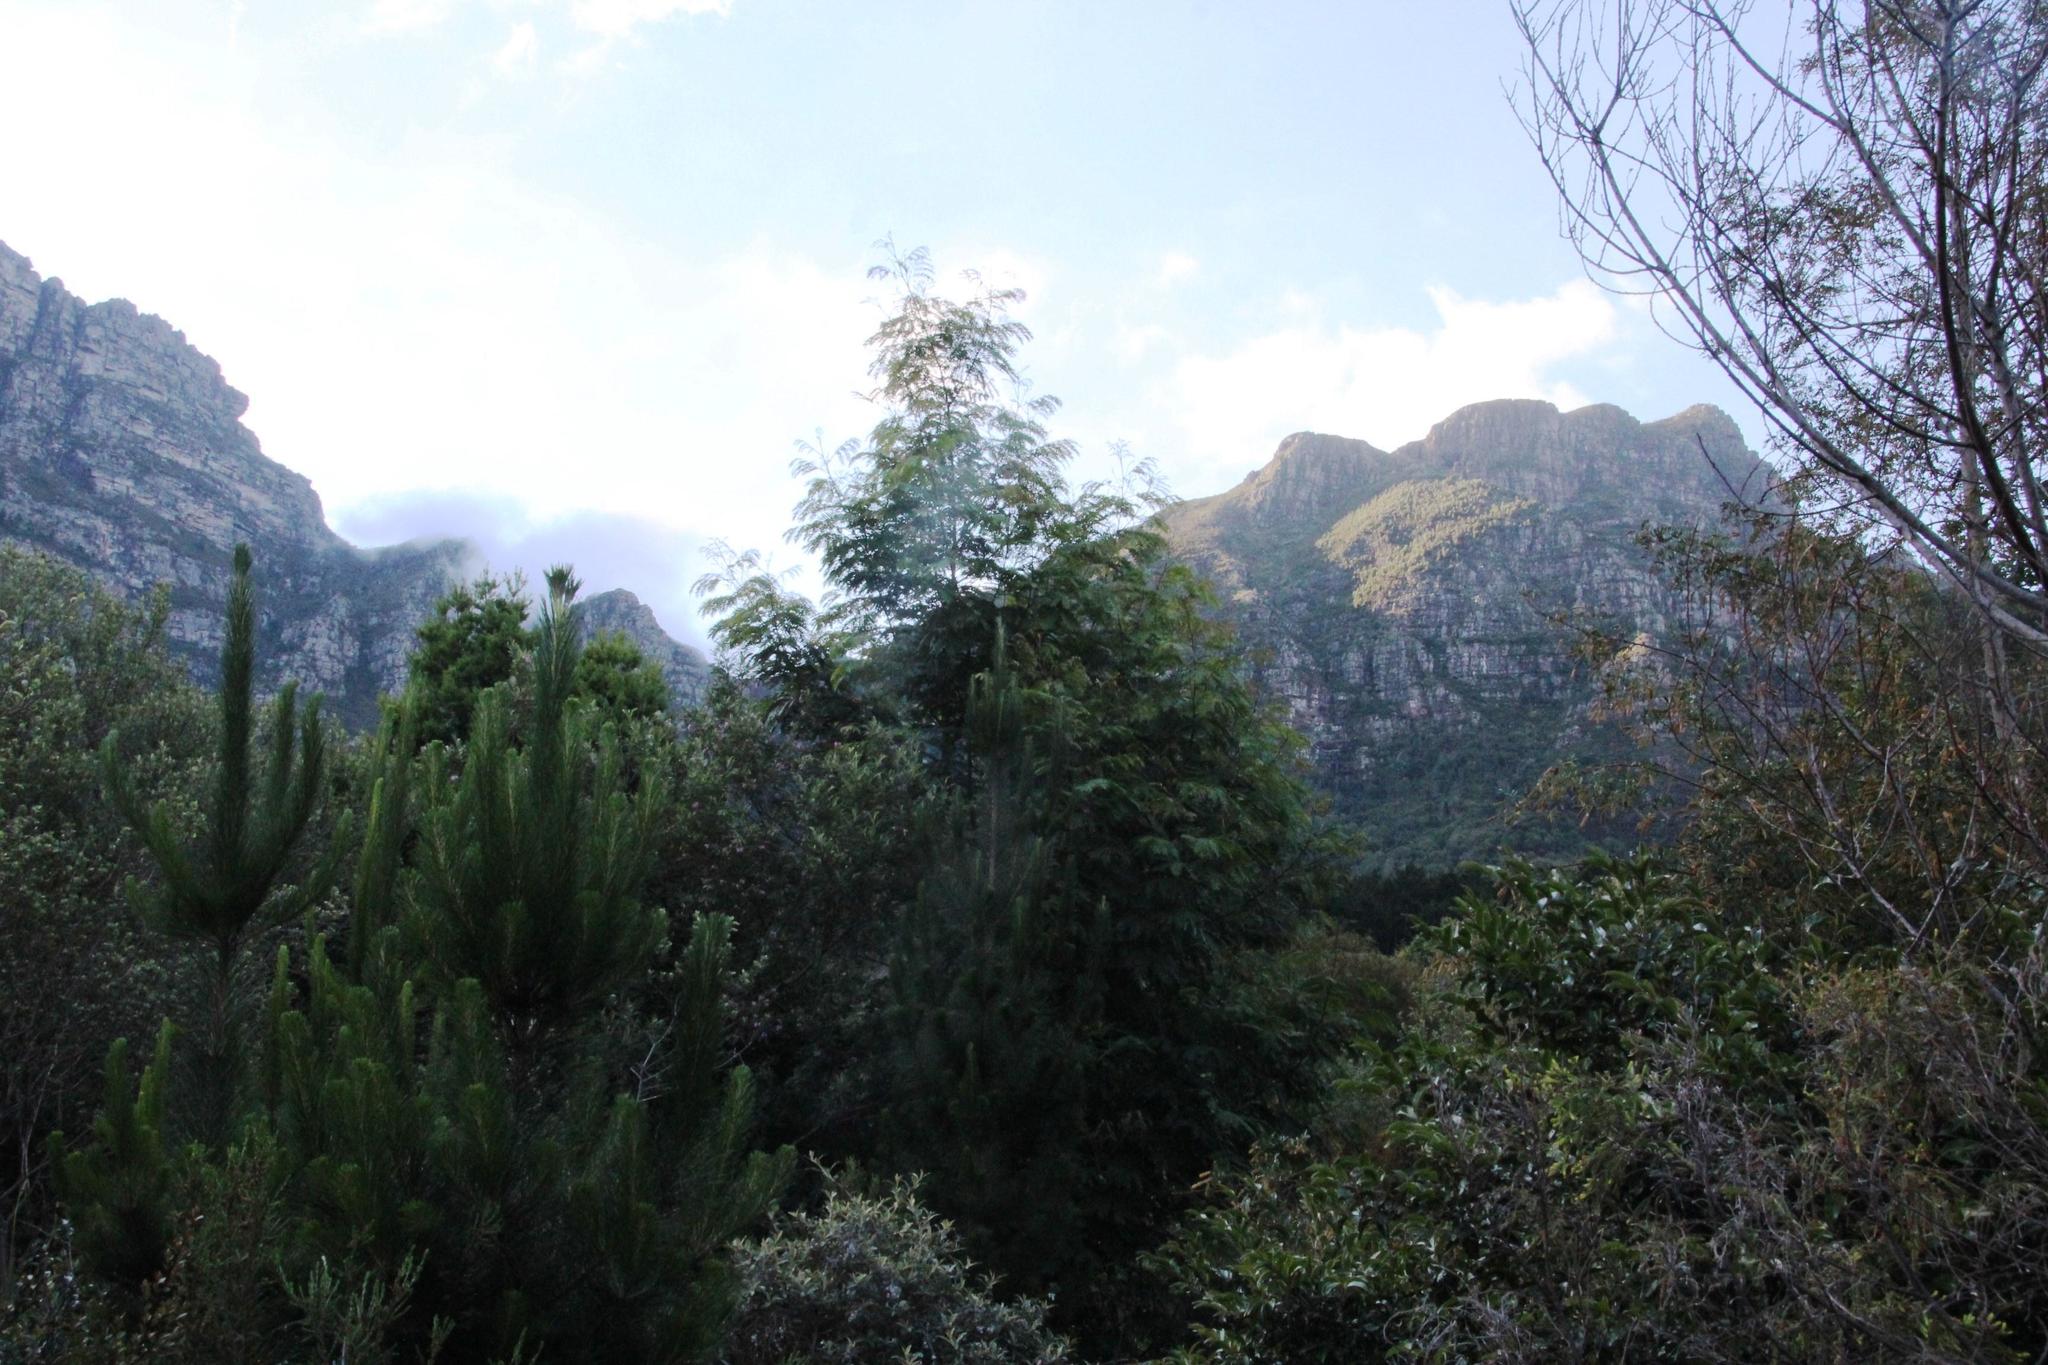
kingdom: Plantae
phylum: Tracheophyta
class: Magnoliopsida
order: Fabales
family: Fabaceae
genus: Acacia
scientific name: Acacia elata
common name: Cedar wattle
